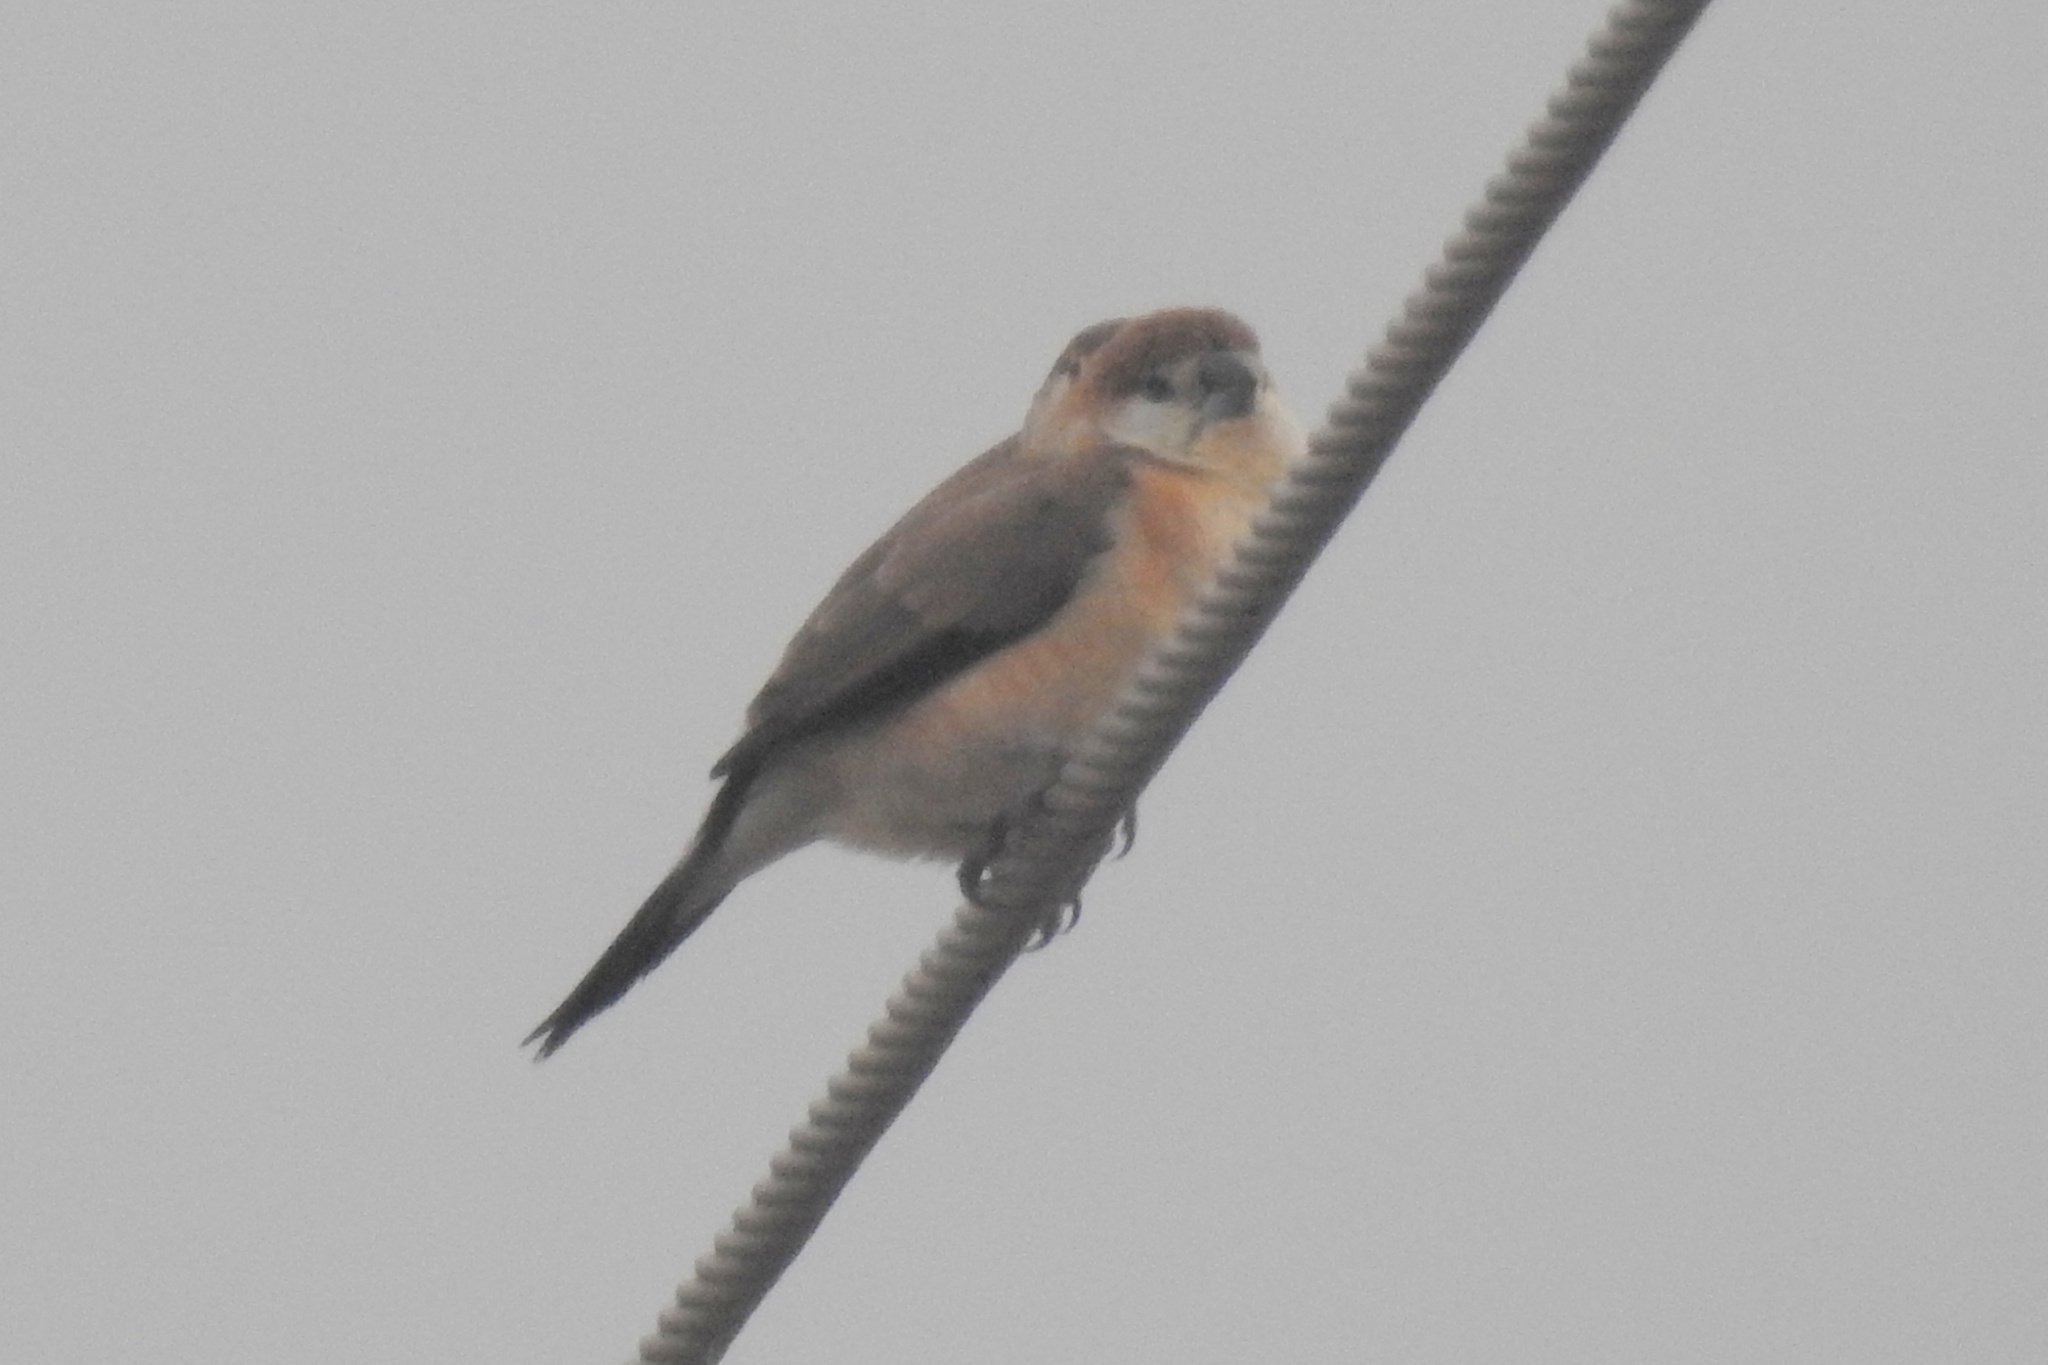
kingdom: Animalia
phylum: Chordata
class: Aves
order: Passeriformes
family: Estrildidae
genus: Euodice
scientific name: Euodice malabarica
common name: Indian silverbill
